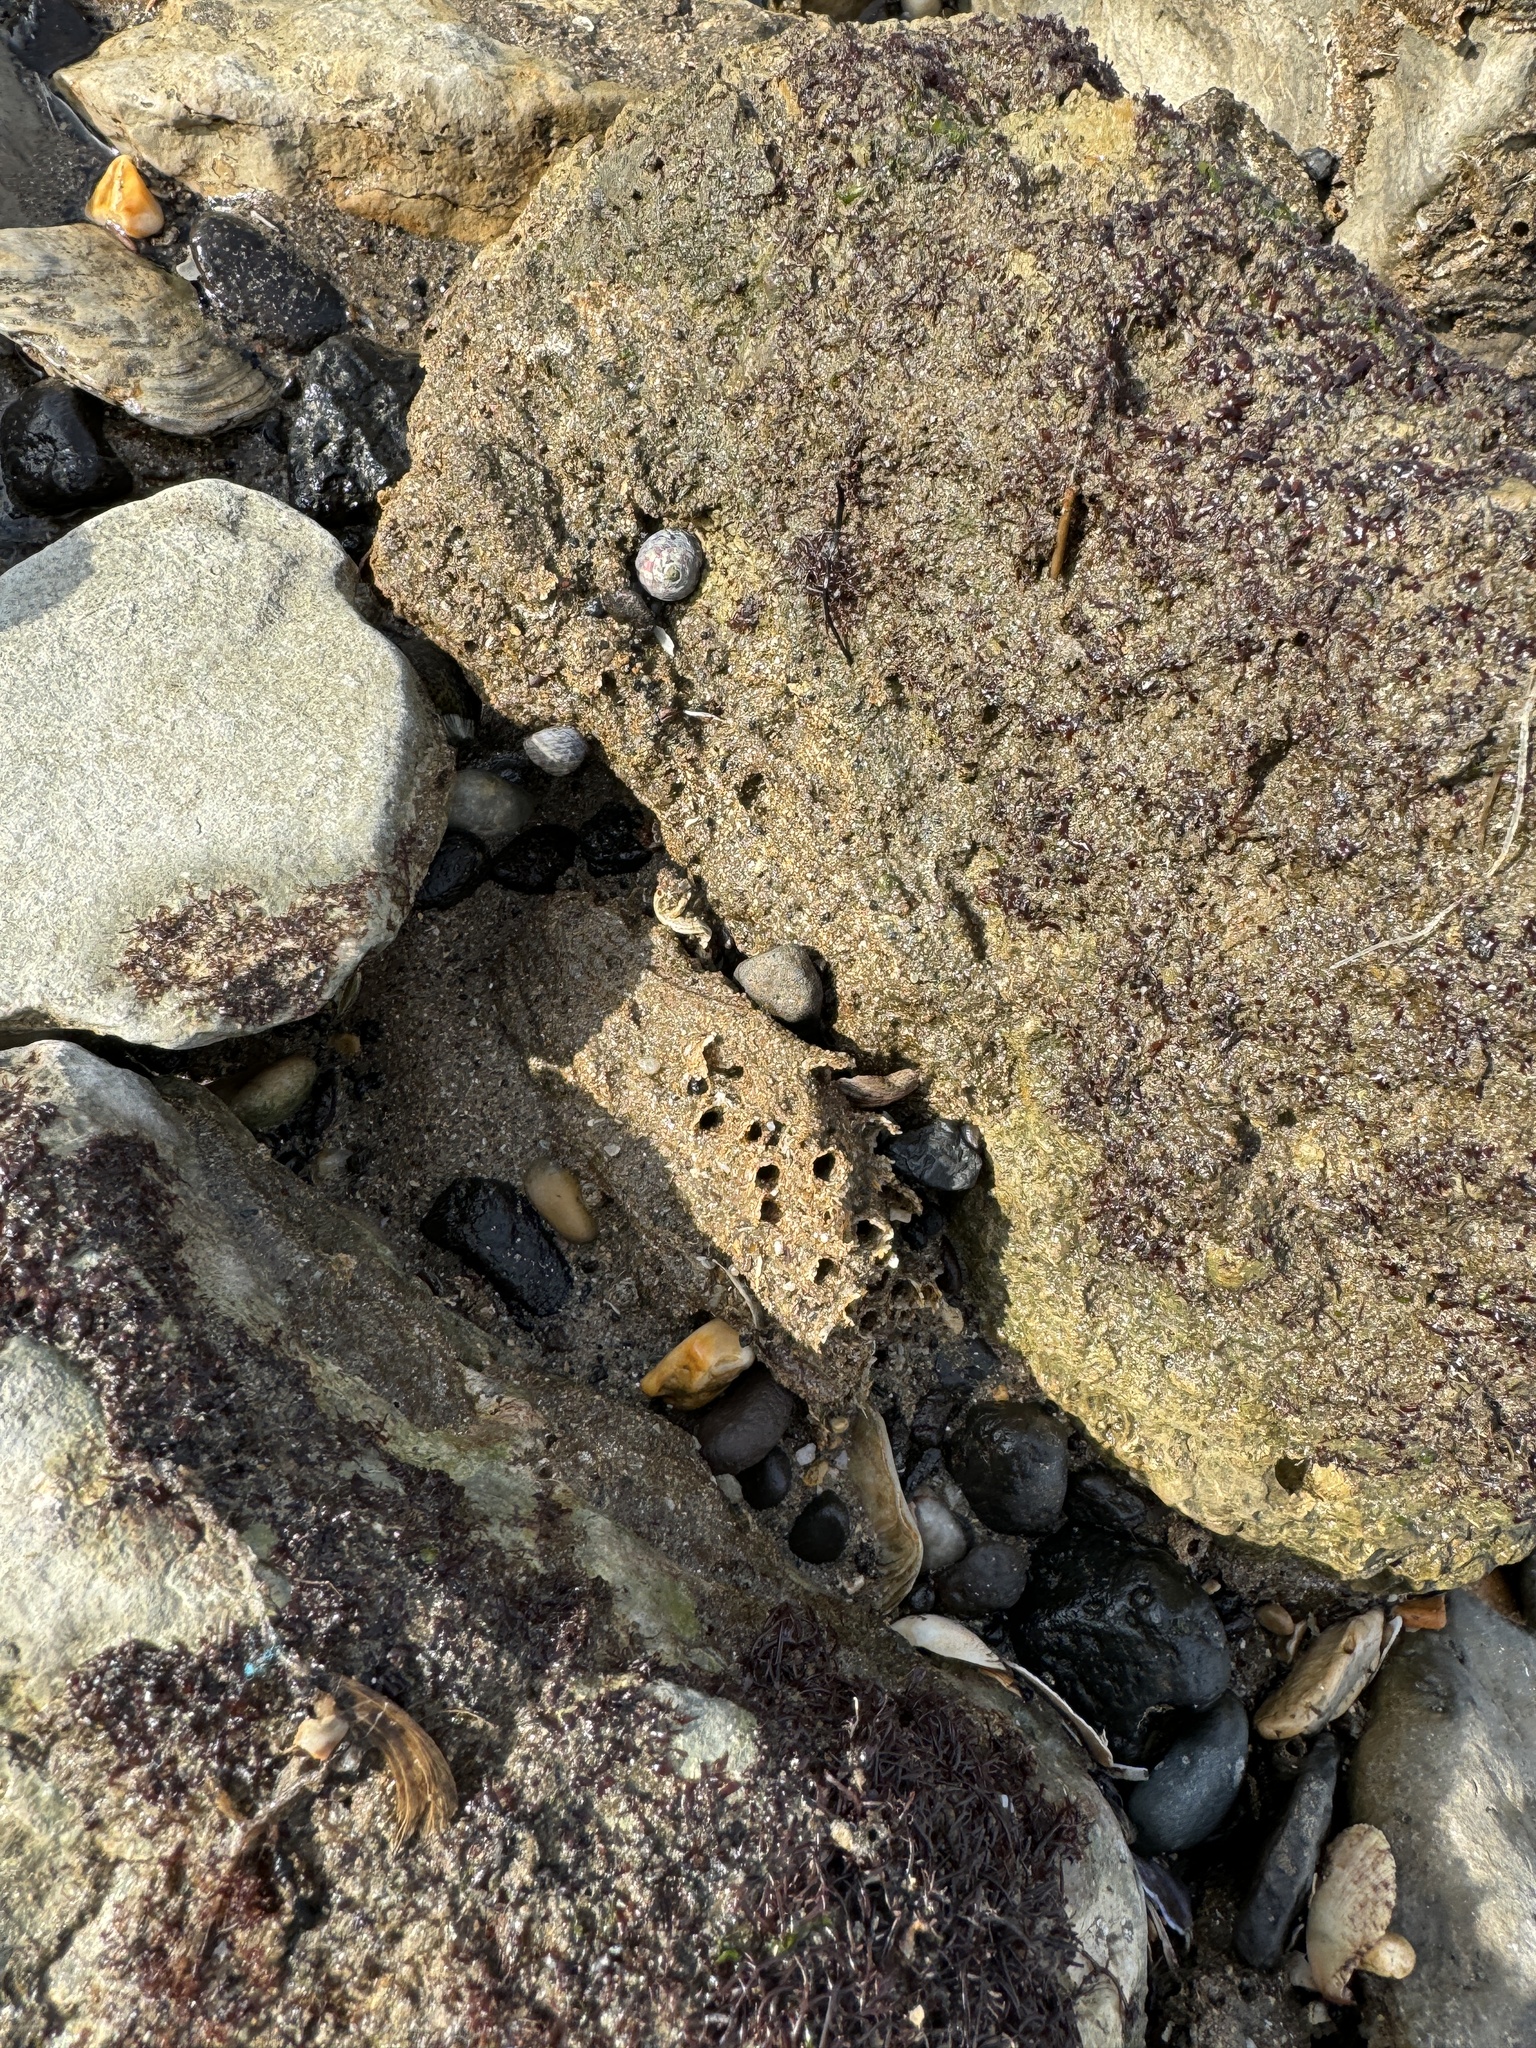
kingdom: Animalia
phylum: Annelida
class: Polychaeta
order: Sabellida
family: Sabellariidae
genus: Sabellaria
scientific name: Sabellaria alveolata
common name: Honeycomb worm
